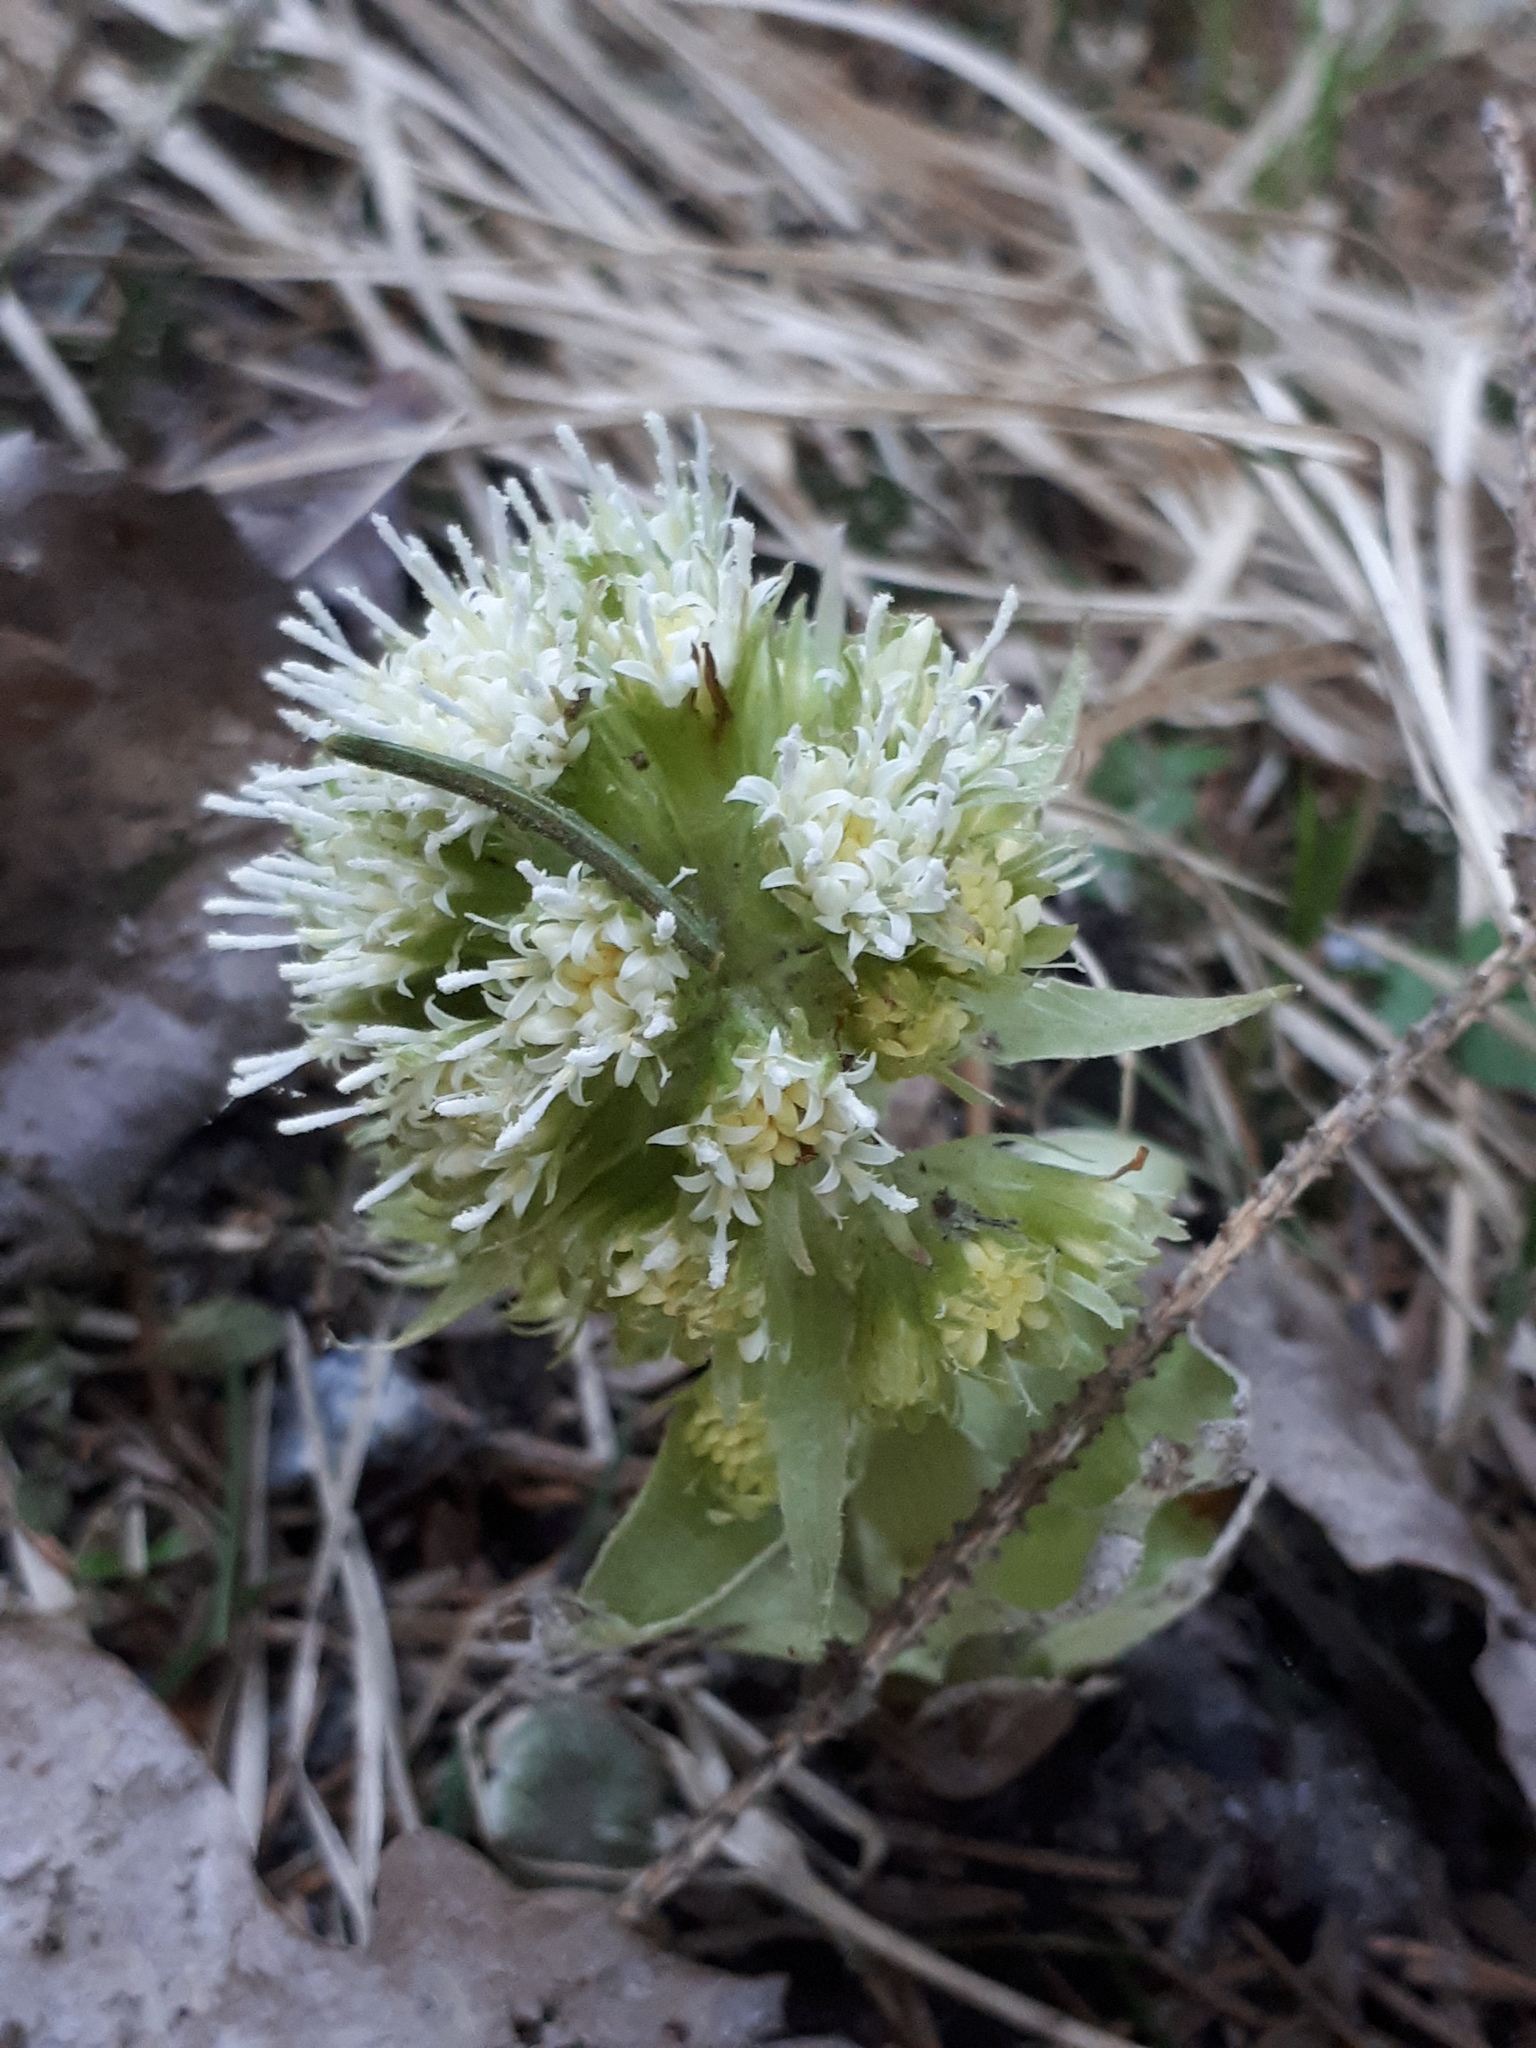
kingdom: Plantae
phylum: Tracheophyta
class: Magnoliopsida
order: Asterales
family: Asteraceae
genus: Petasites
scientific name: Petasites albus
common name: White butterbur
